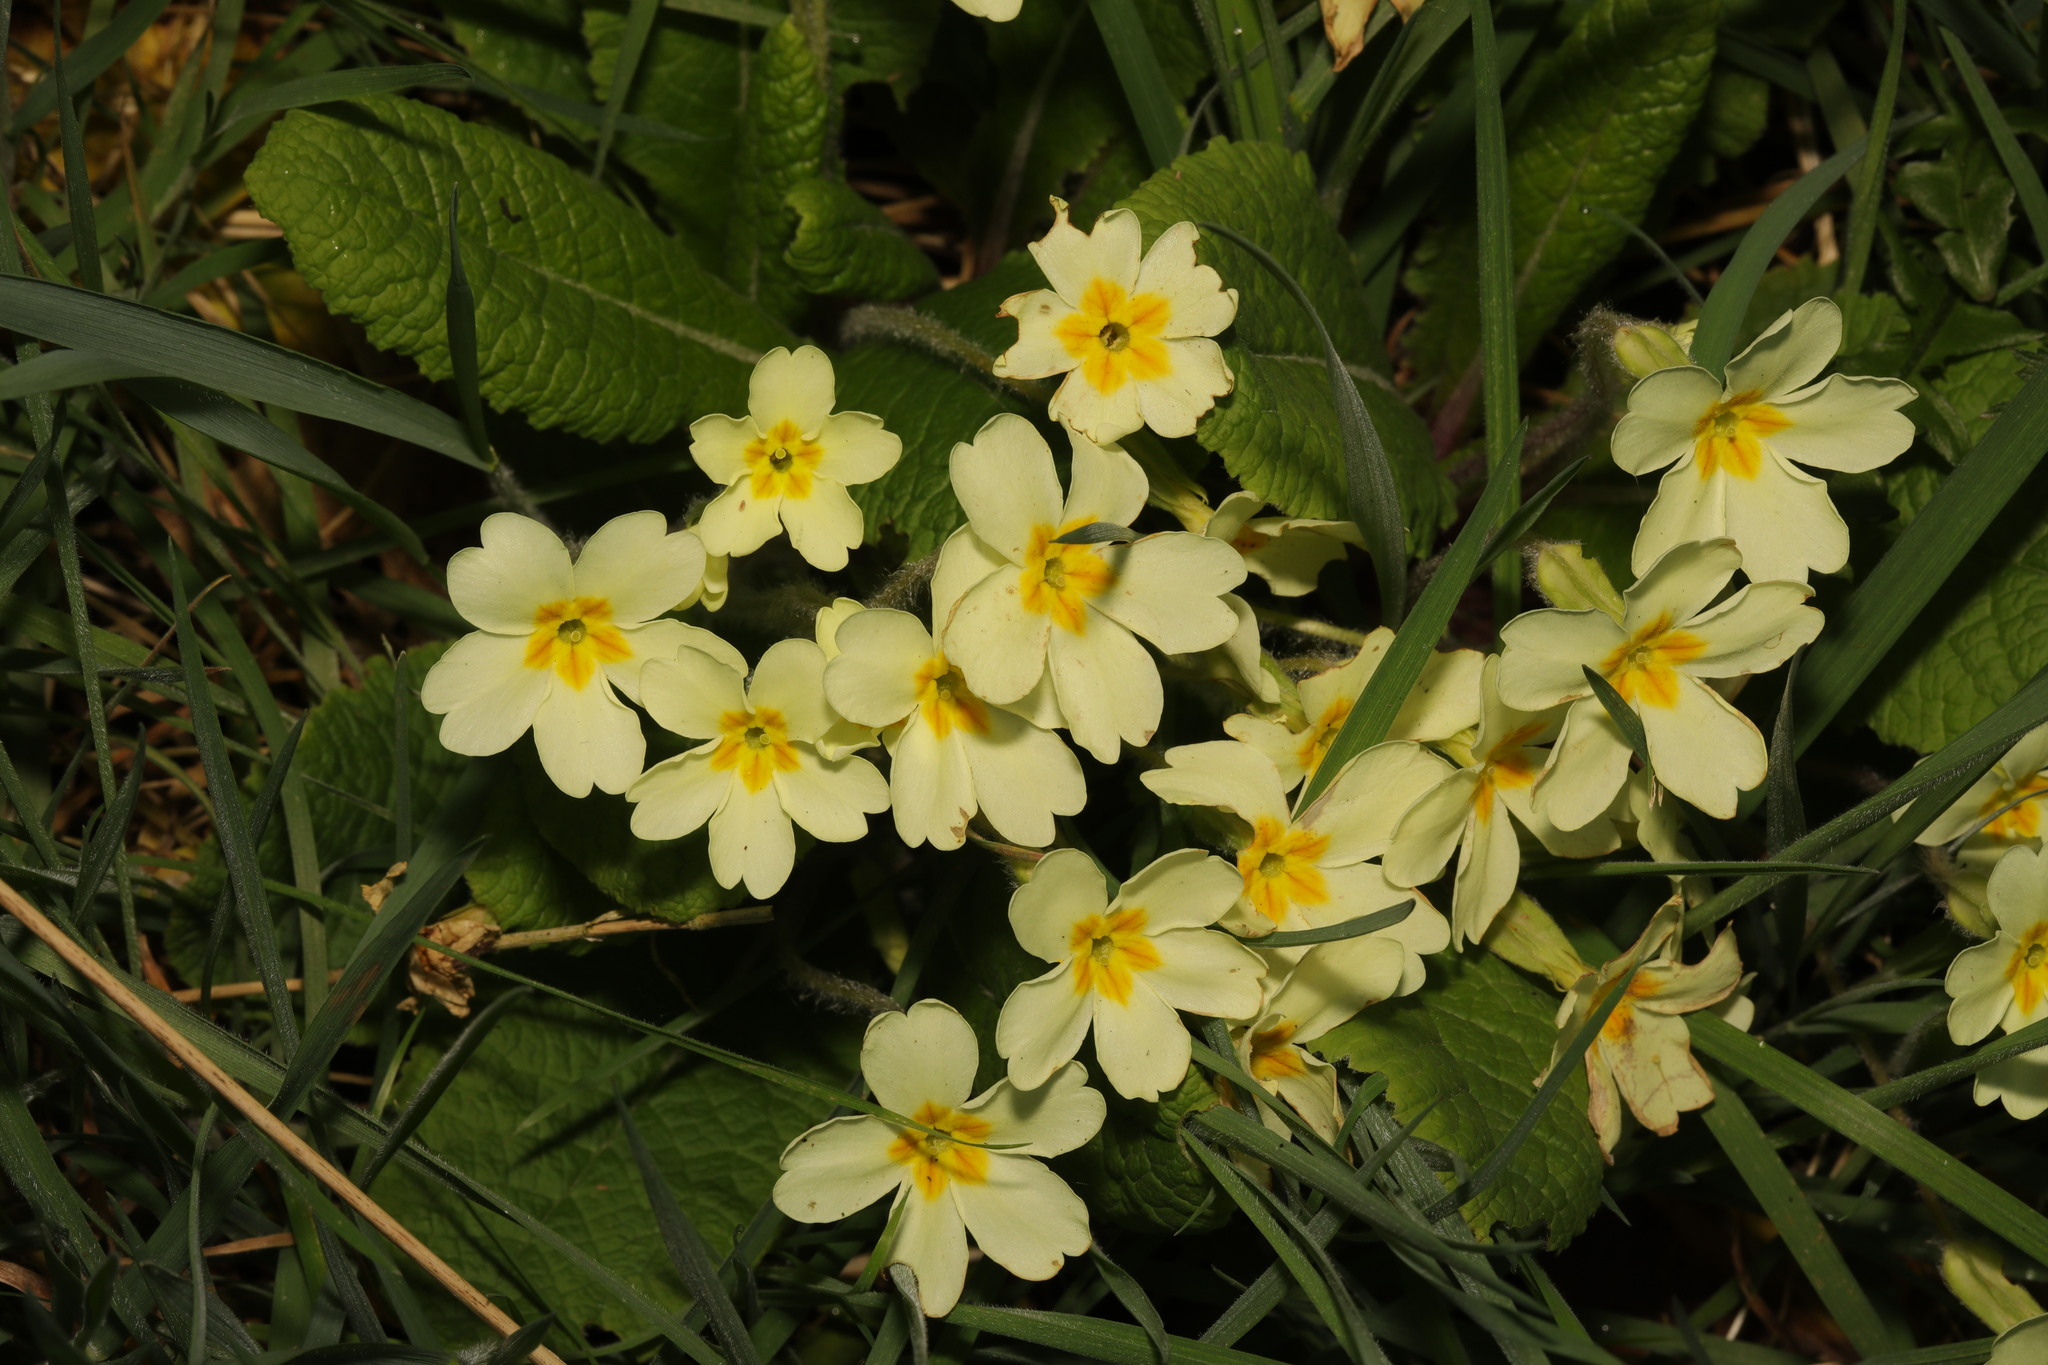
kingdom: Plantae
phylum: Tracheophyta
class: Magnoliopsida
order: Ericales
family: Primulaceae
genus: Primula
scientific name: Primula vulgaris
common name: Primrose
